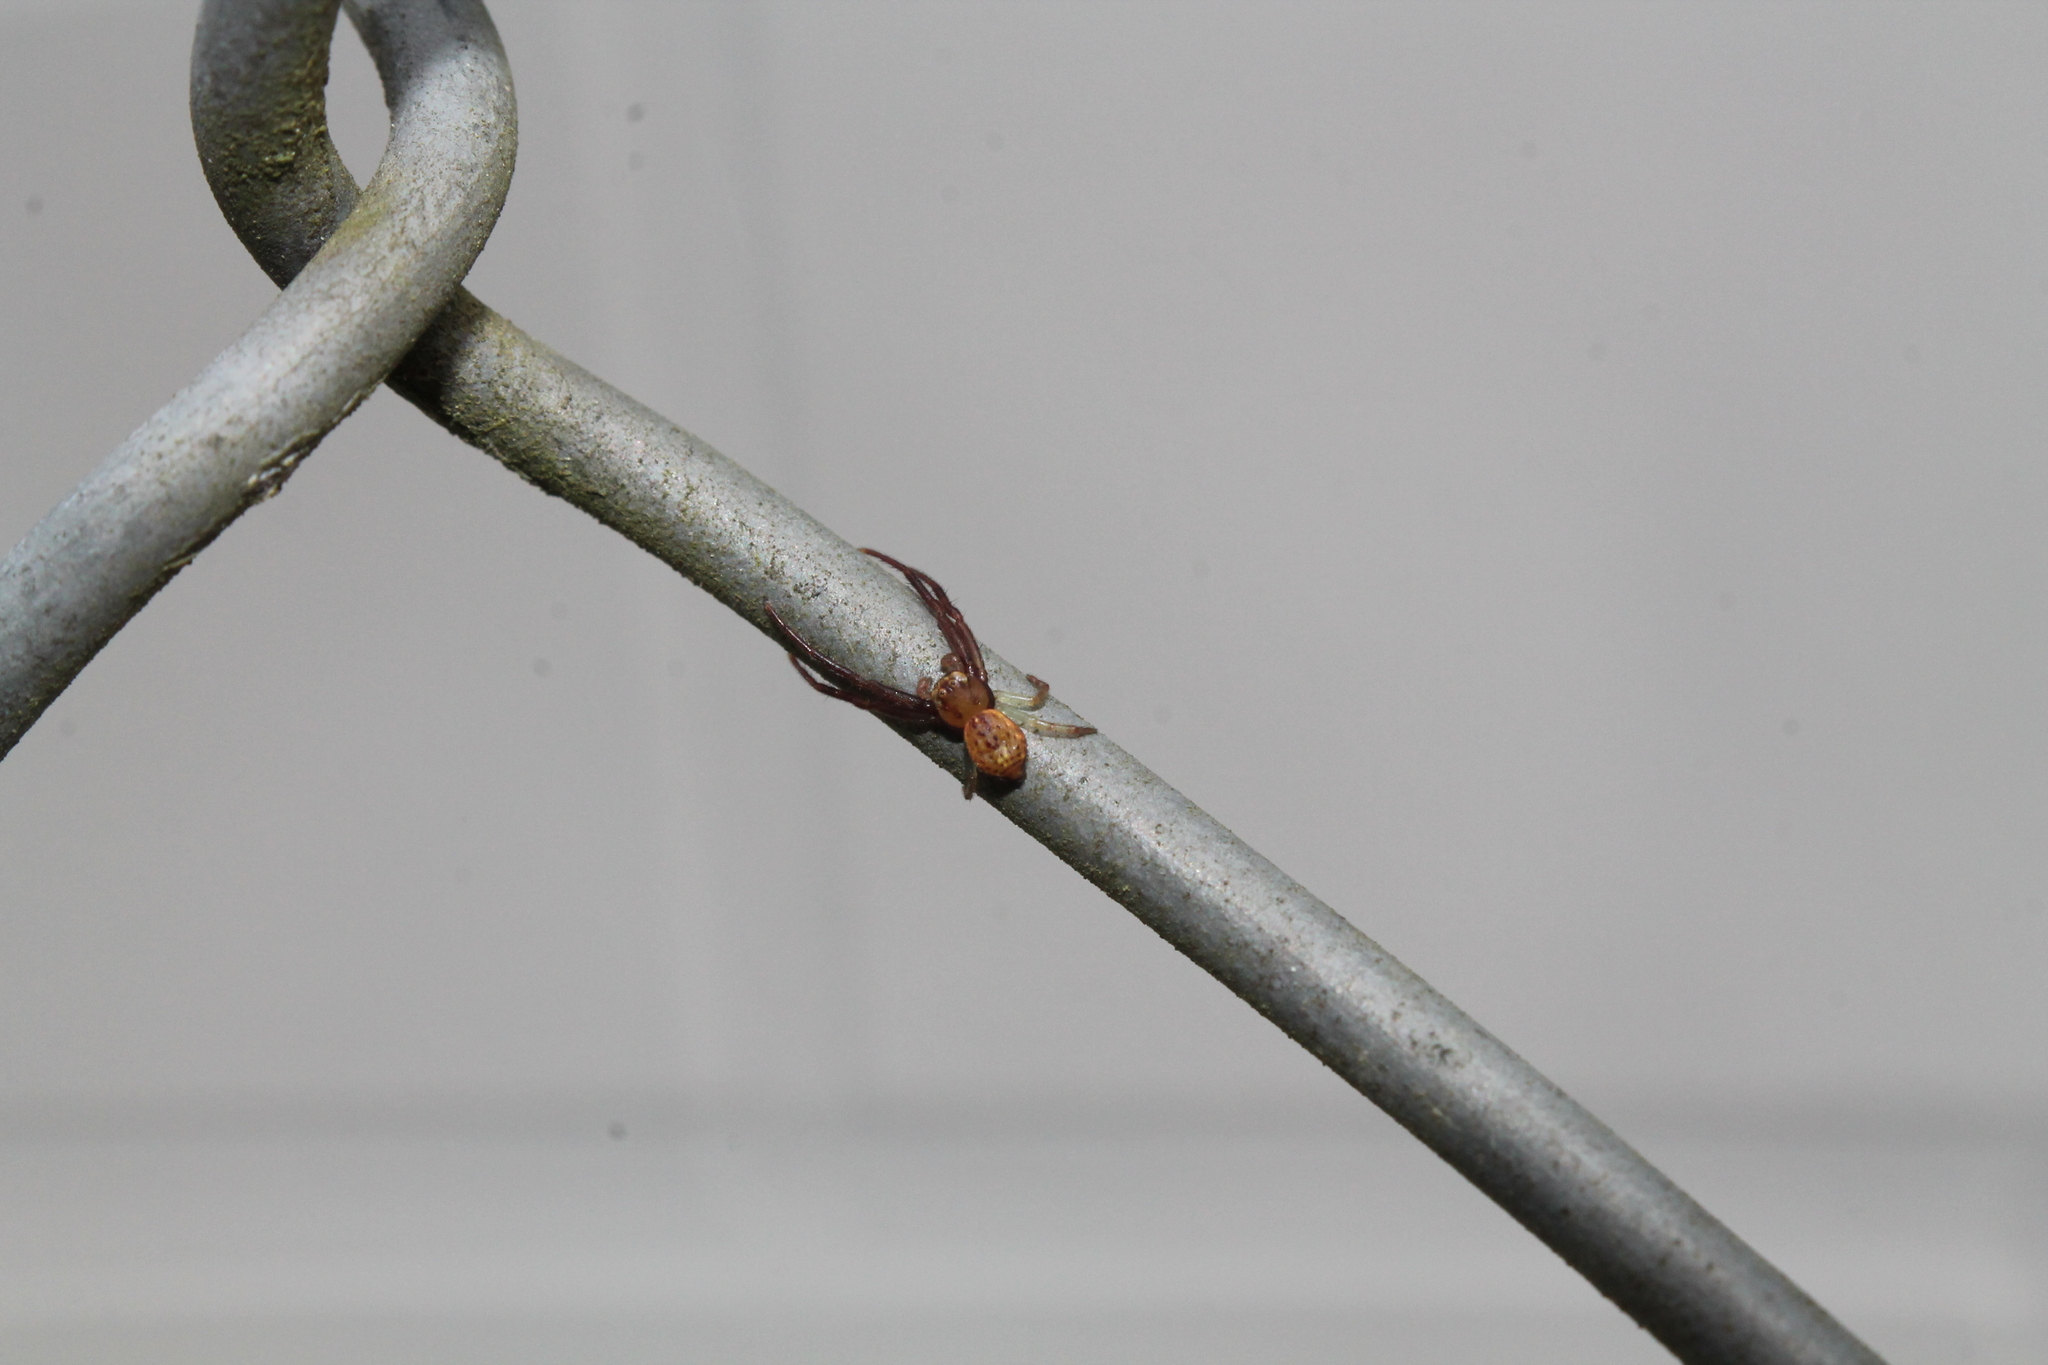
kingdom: Animalia
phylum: Arthropoda
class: Arachnida
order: Araneae
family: Thomisidae
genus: Diaea
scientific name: Diaea ambara
